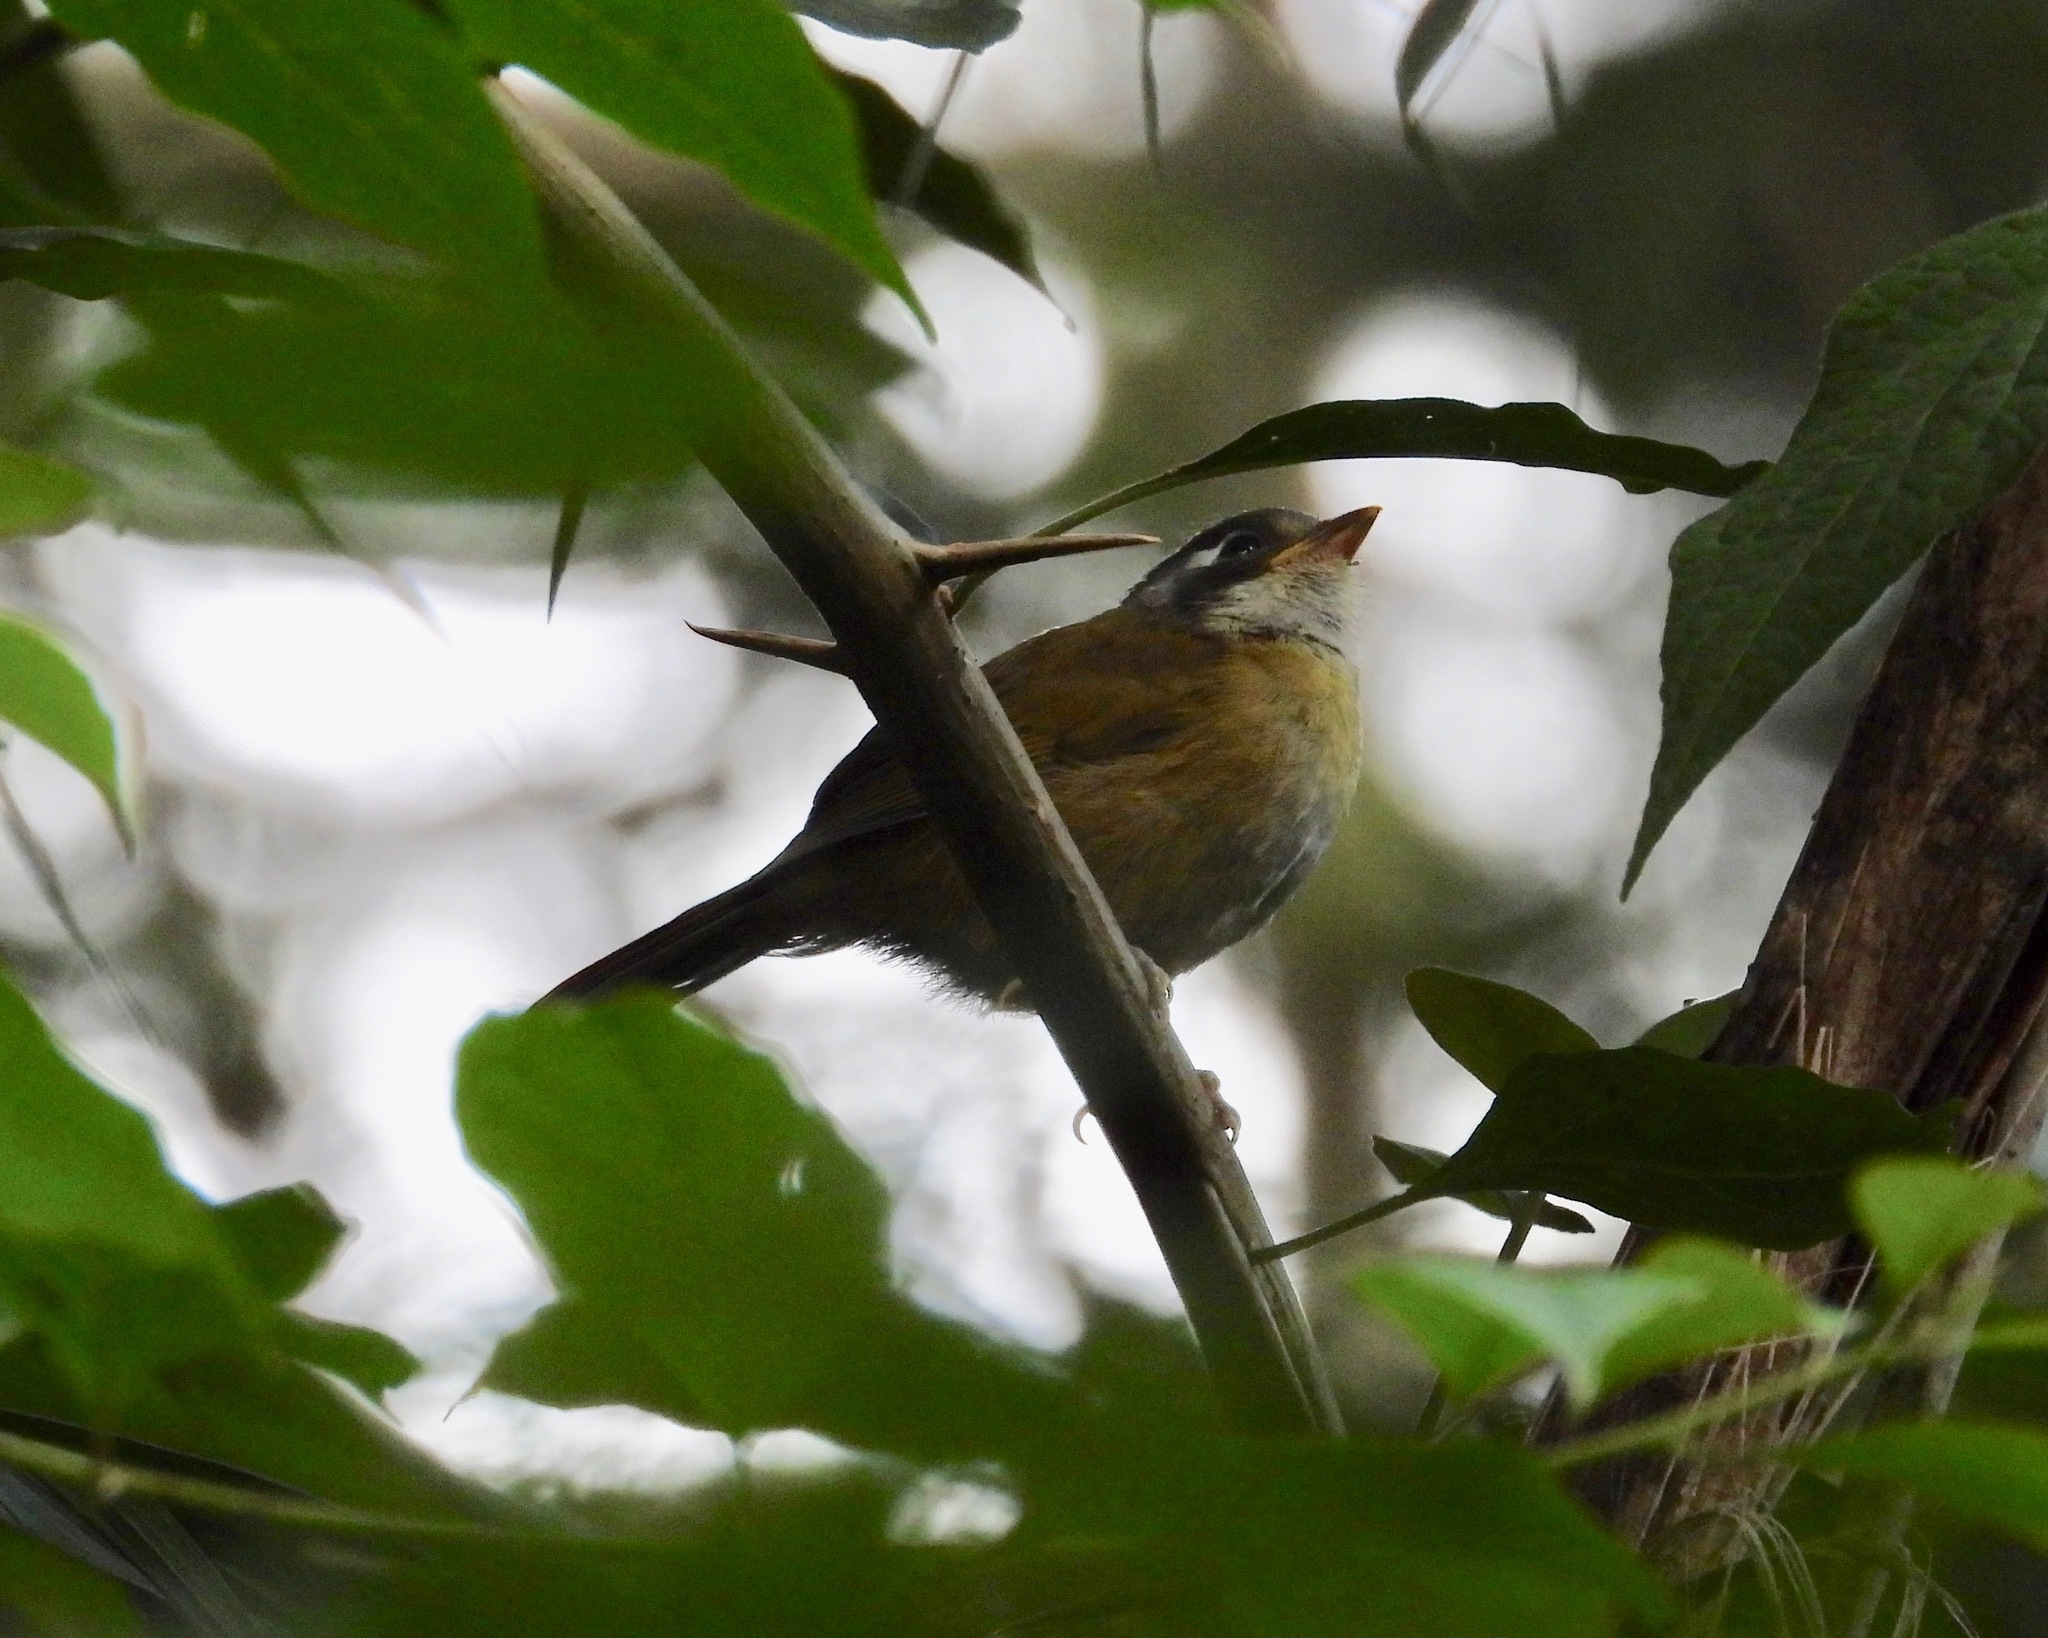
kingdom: Animalia
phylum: Chordata
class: Aves
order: Passeriformes
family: Passerellidae
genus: Chlorospingus
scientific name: Chlorospingus flavopectus
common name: Common chlorospingus
